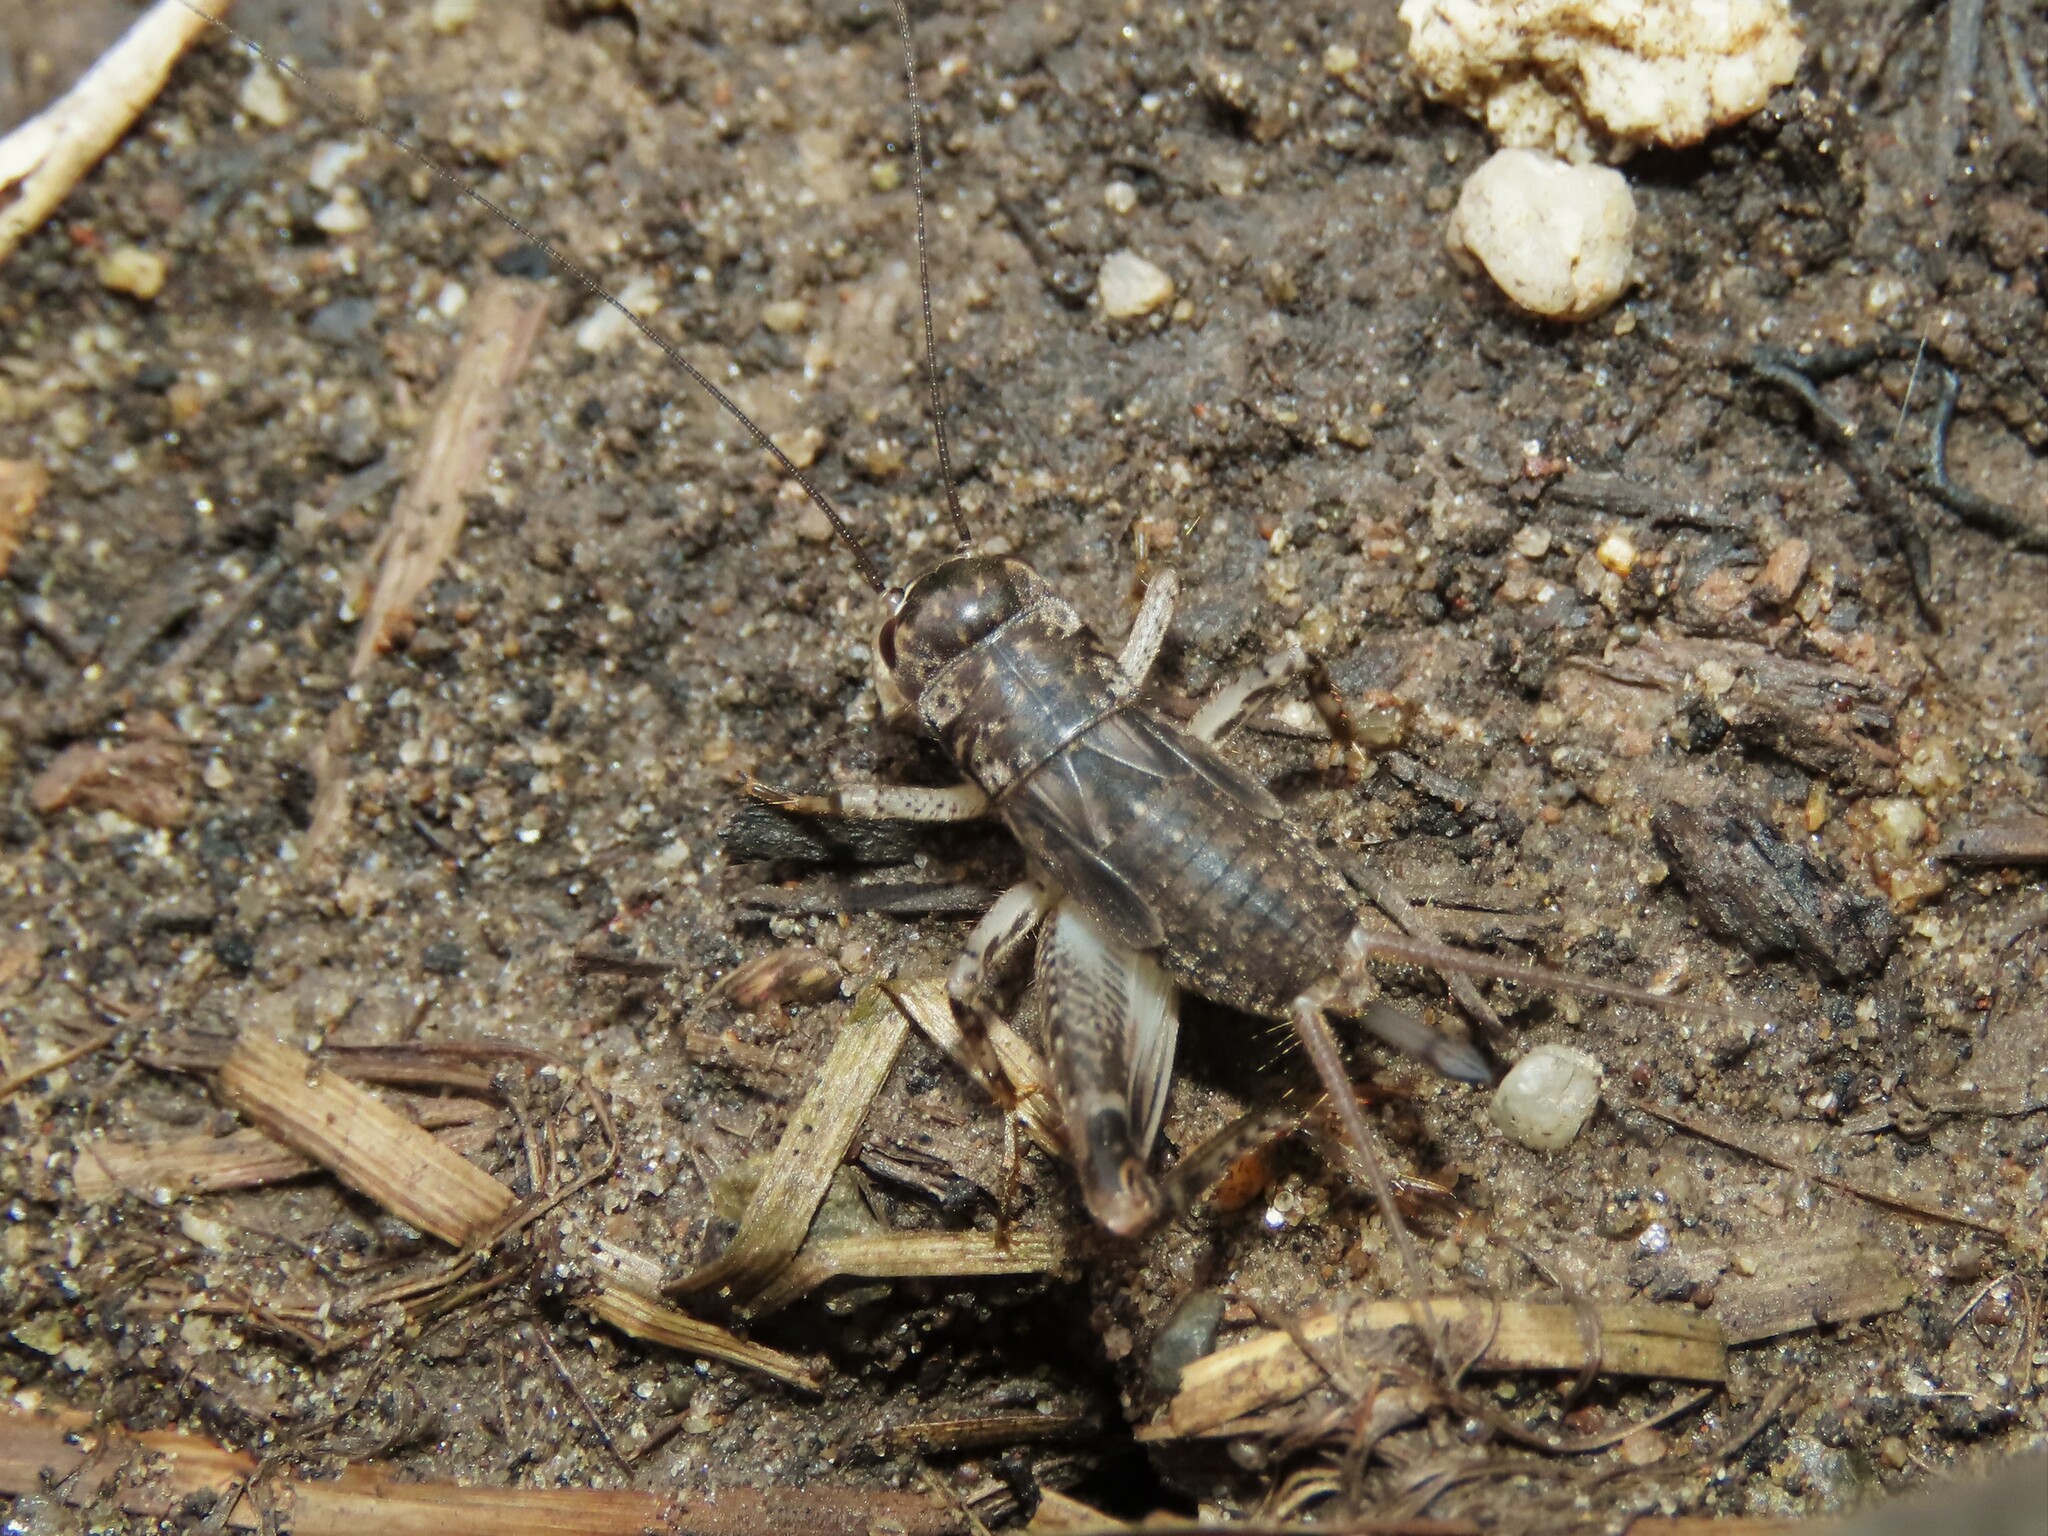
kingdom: Animalia
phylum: Arthropoda
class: Insecta
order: Orthoptera
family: Gryllidae
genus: Velarifictorus
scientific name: Velarifictorus micado
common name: Japanese burrowing cricket
